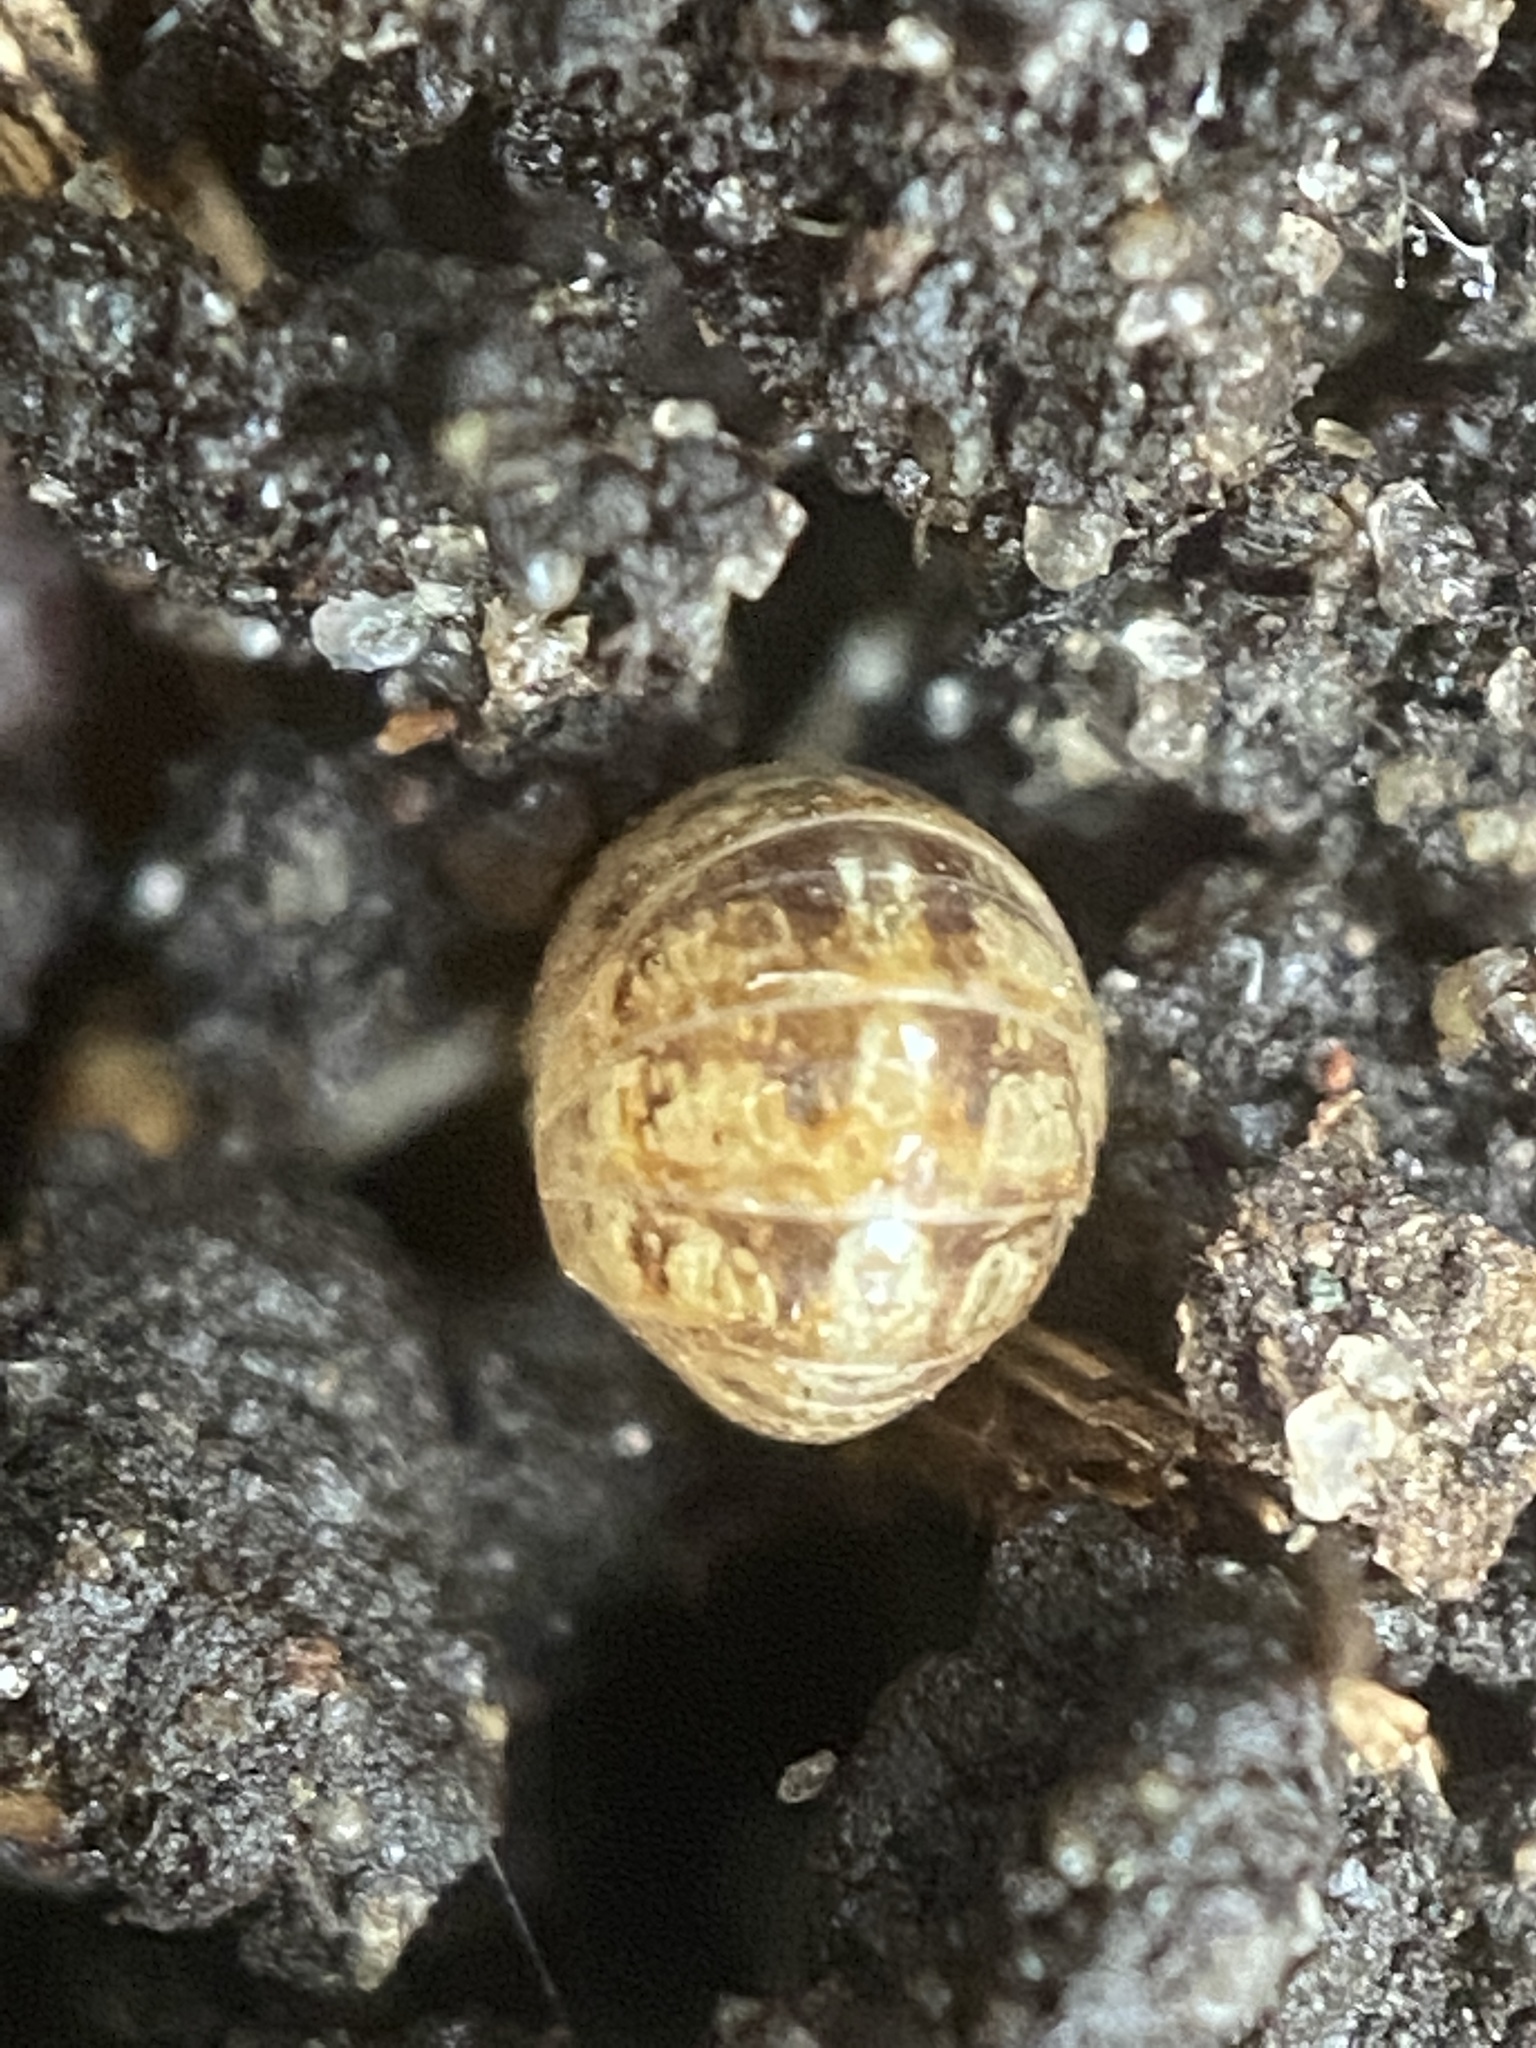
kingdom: Animalia
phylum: Arthropoda
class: Malacostraca
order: Isopoda
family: Armadillidiidae
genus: Armadillidium
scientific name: Armadillidium vulgare
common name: Common pill woodlouse
